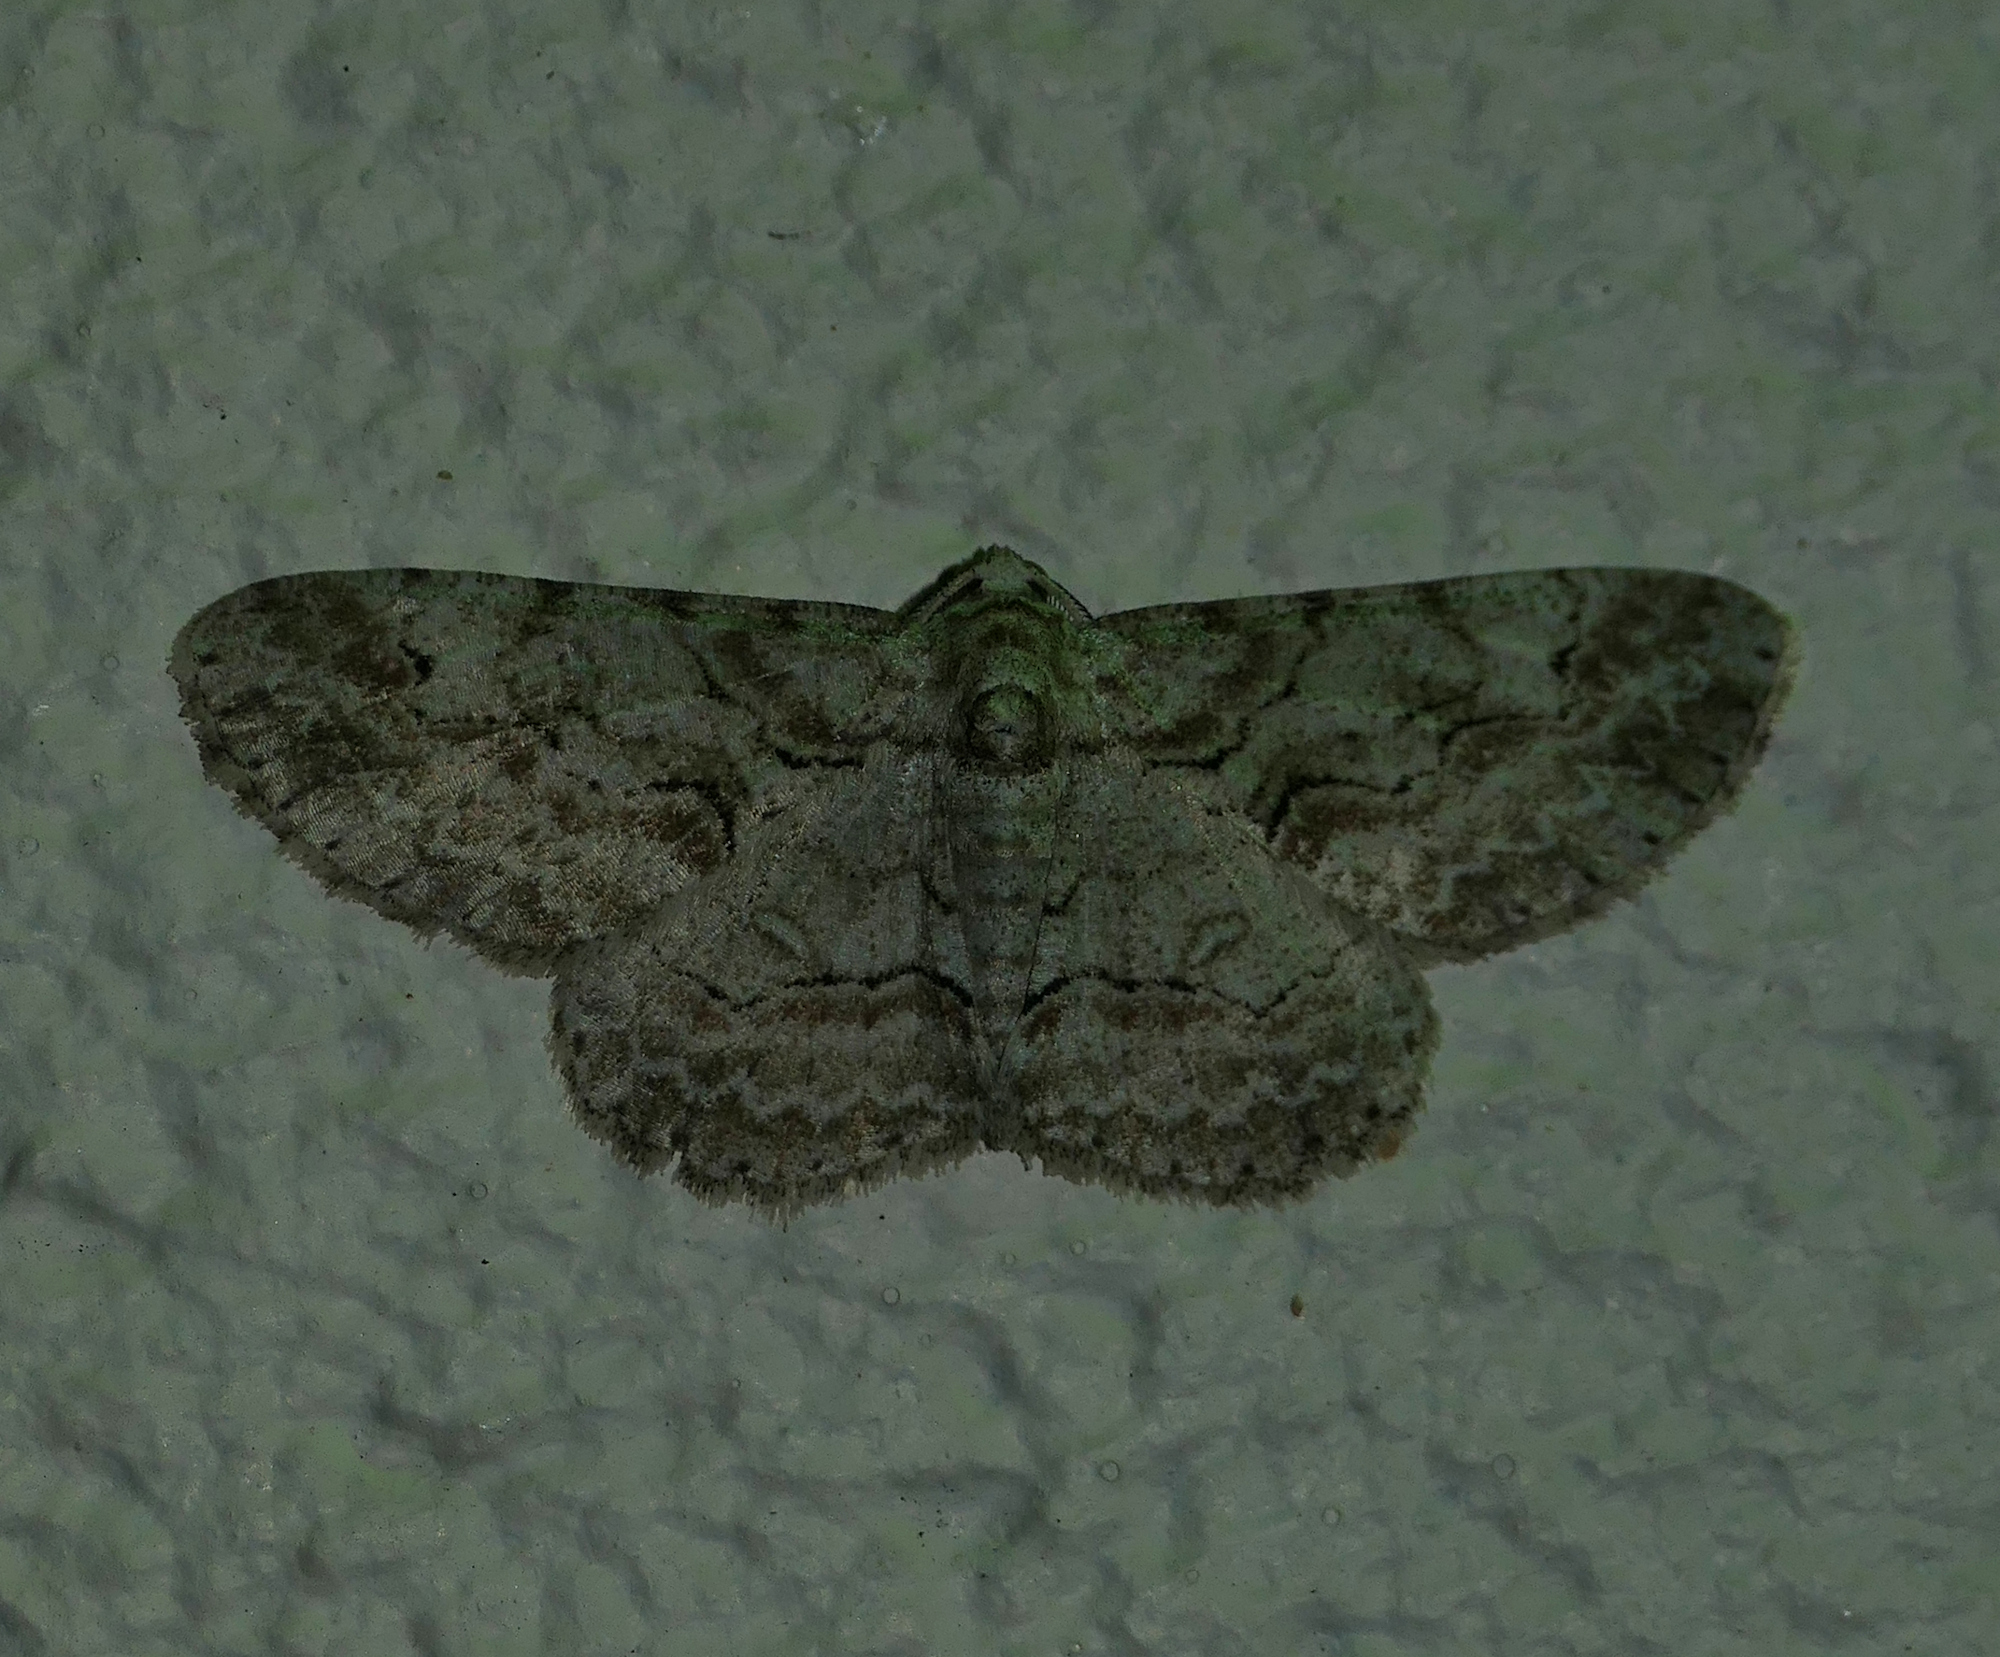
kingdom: Animalia
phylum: Arthropoda
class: Insecta
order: Lepidoptera
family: Geometridae
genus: Iridopsis
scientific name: Iridopsis defectaria
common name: Brown-shaded gray
